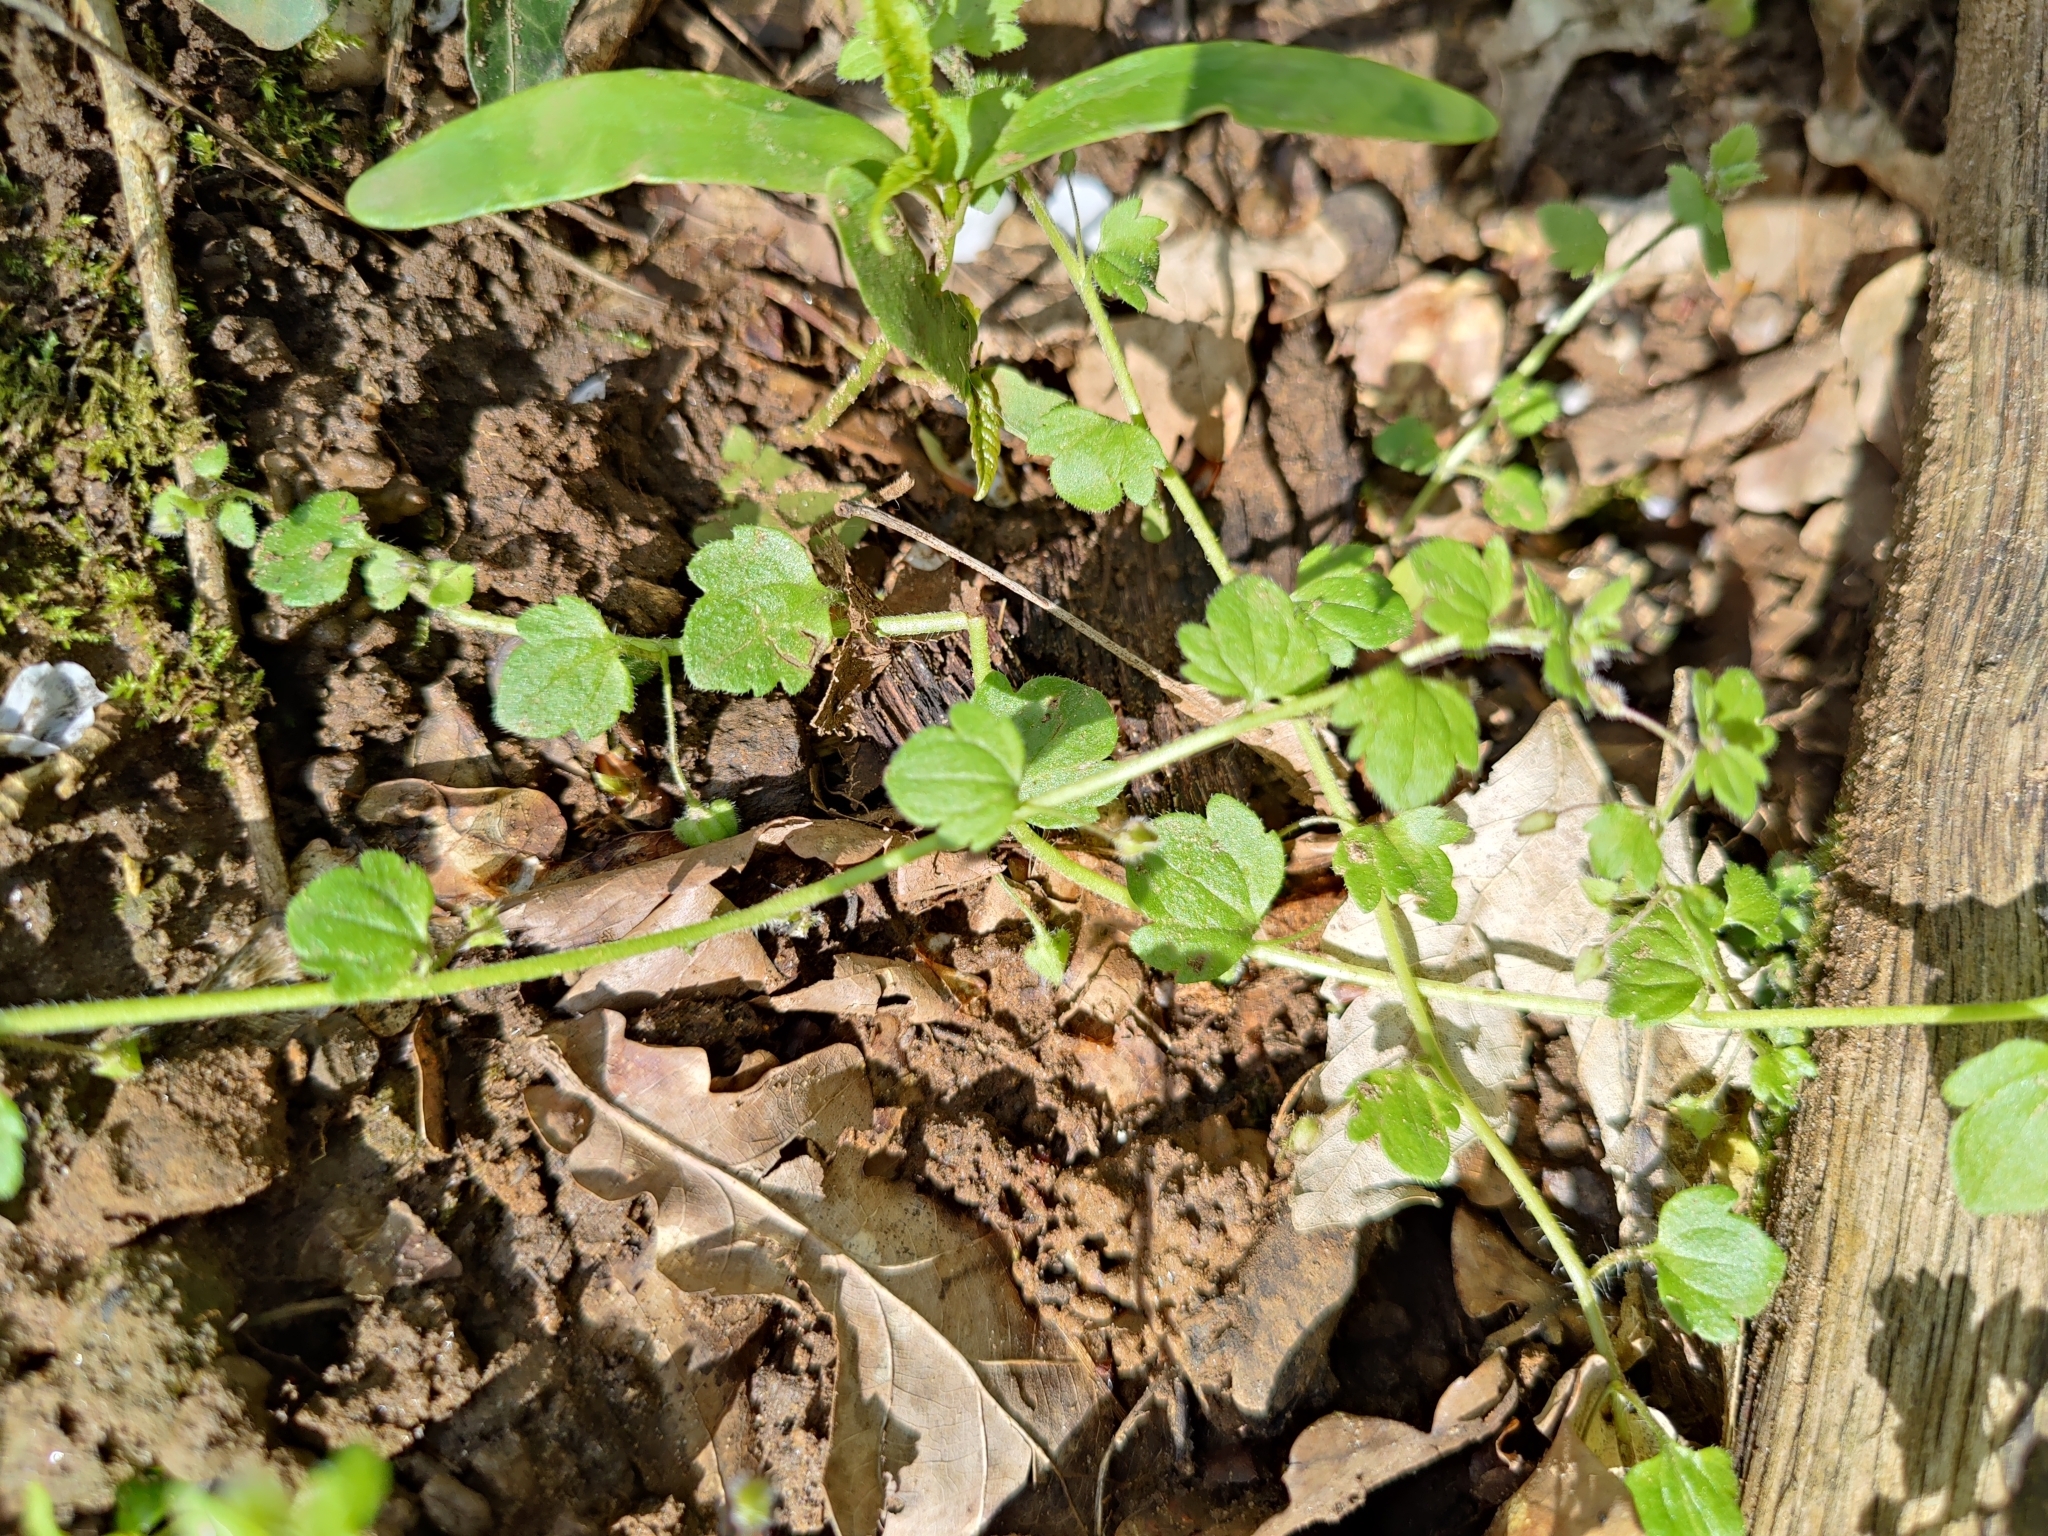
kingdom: Plantae
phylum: Tracheophyta
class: Magnoliopsida
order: Lamiales
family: Plantaginaceae
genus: Veronica
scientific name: Veronica sublobata
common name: False ivy-leaved speedwell
